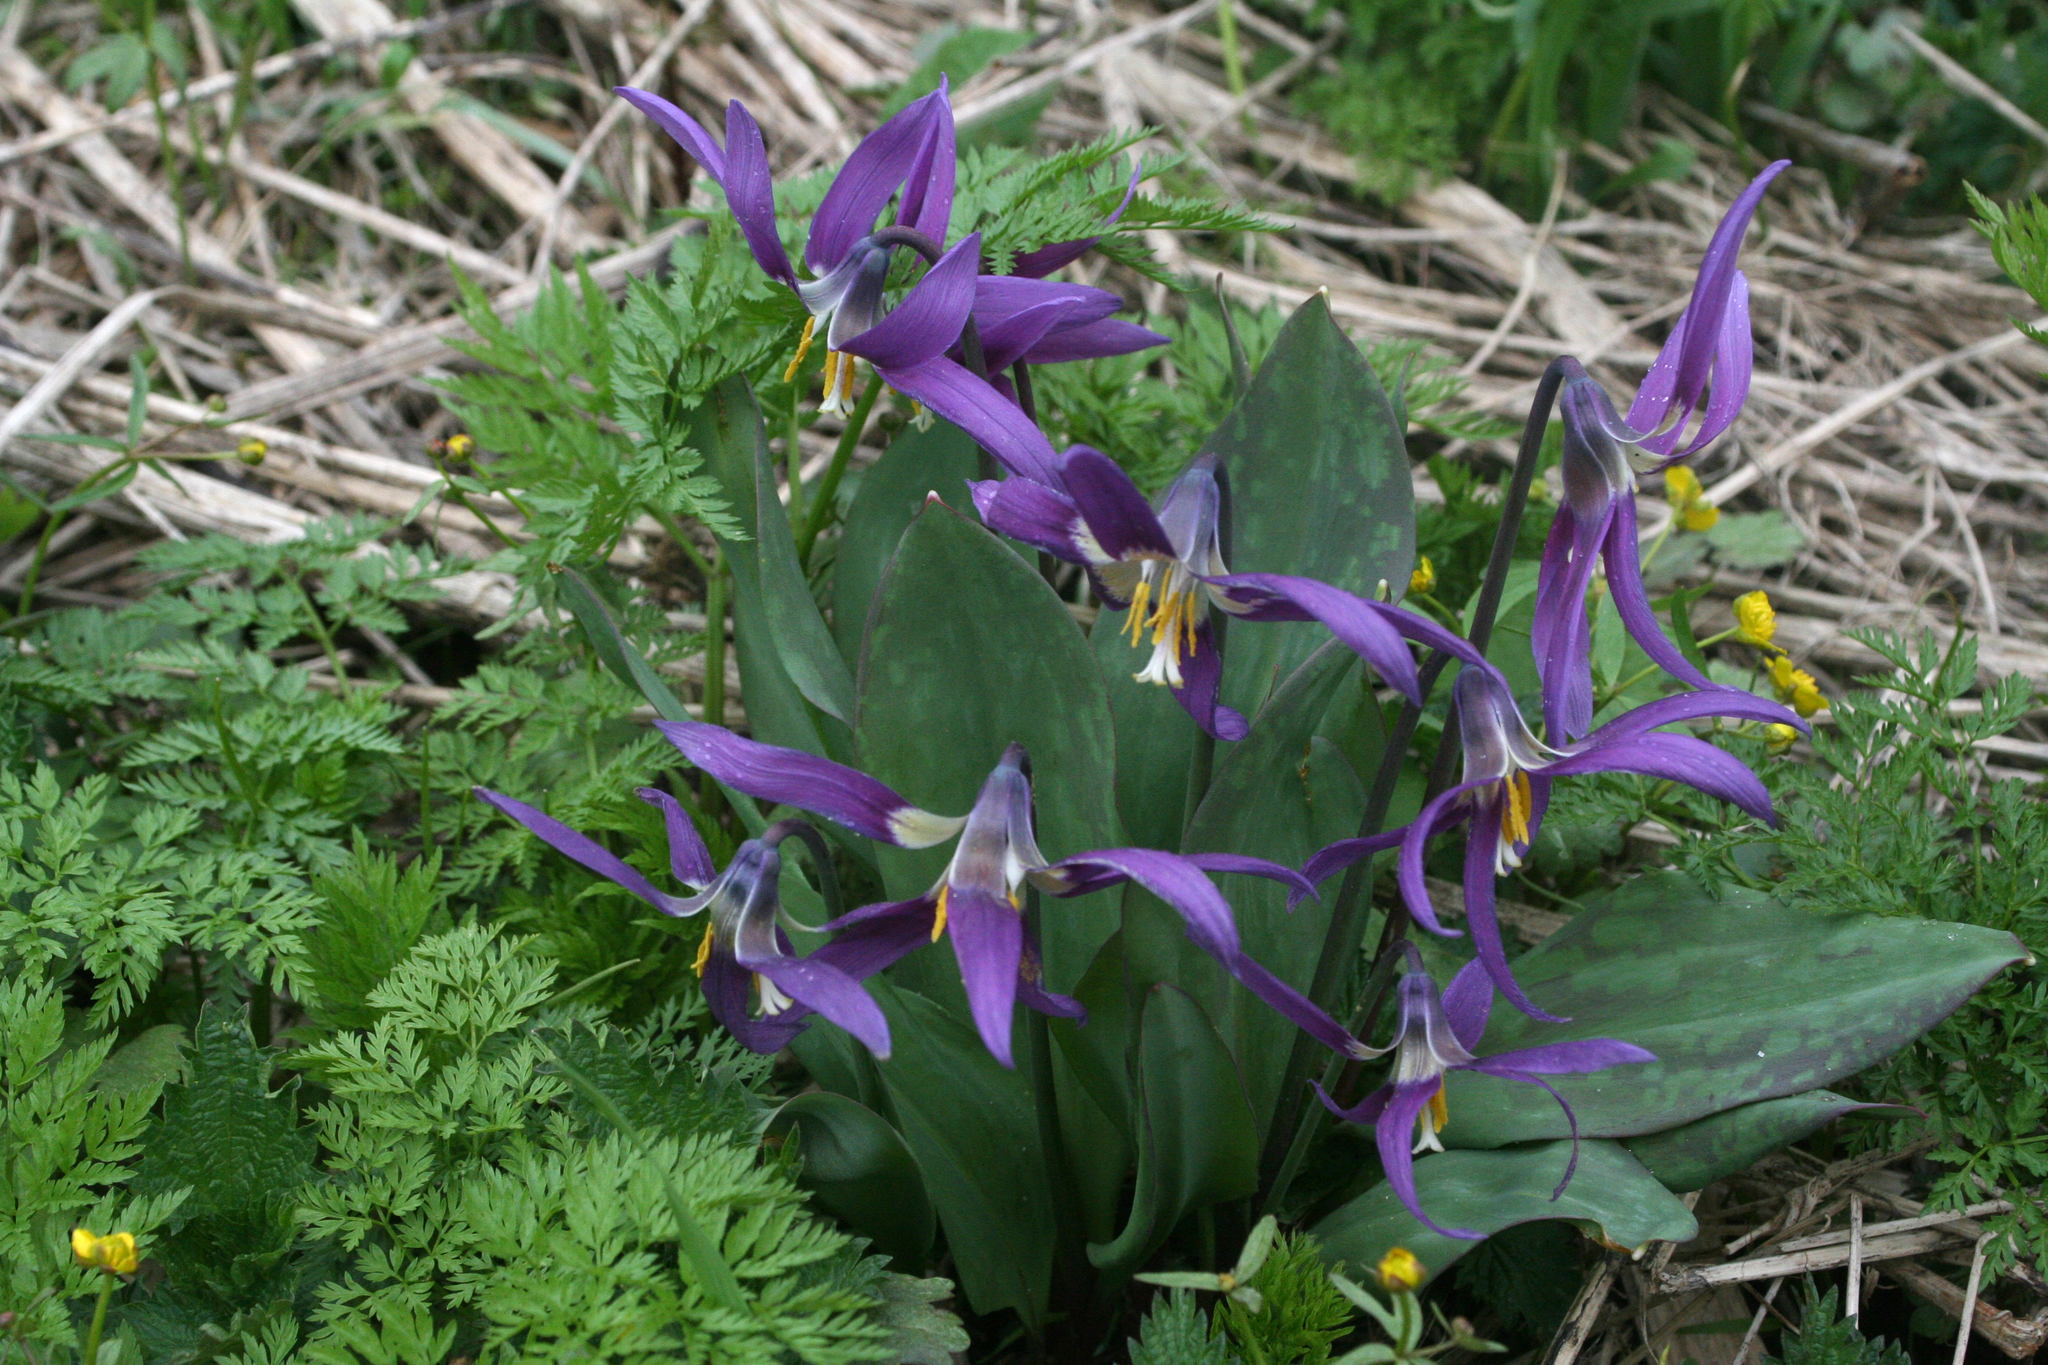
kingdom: Plantae
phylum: Tracheophyta
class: Liliopsida
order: Liliales
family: Liliaceae
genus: Erythronium
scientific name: Erythronium sibiricum
